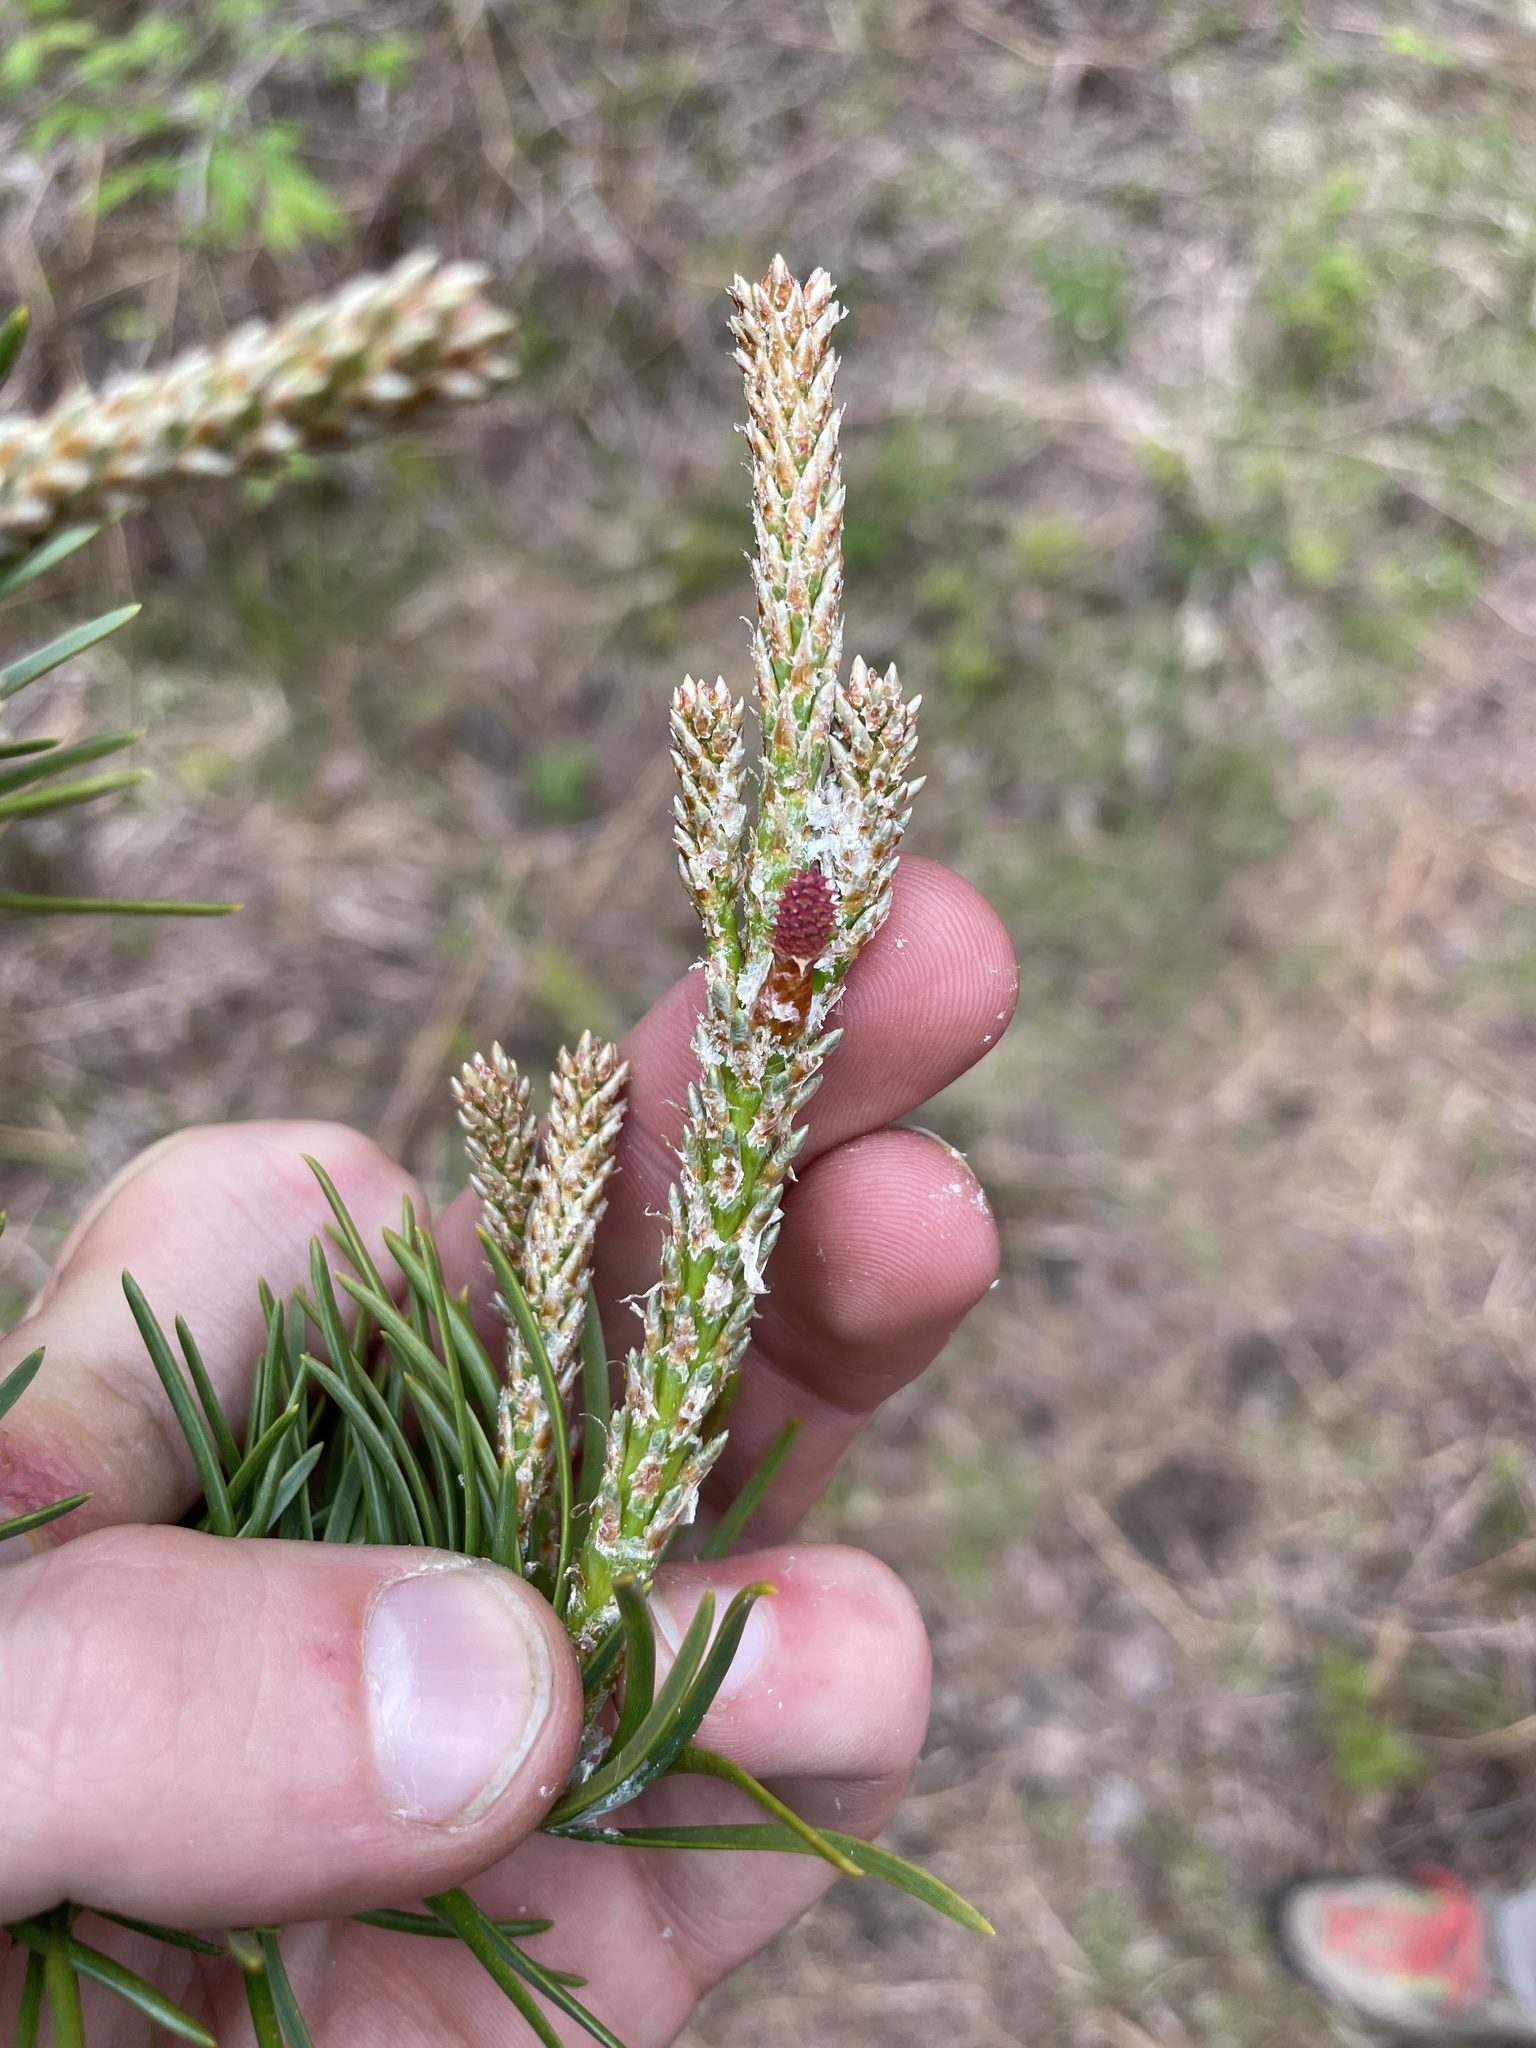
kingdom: Plantae
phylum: Tracheophyta
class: Pinopsida
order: Pinales
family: Pinaceae
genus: Pinus
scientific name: Pinus banksiana
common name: Jack pine
